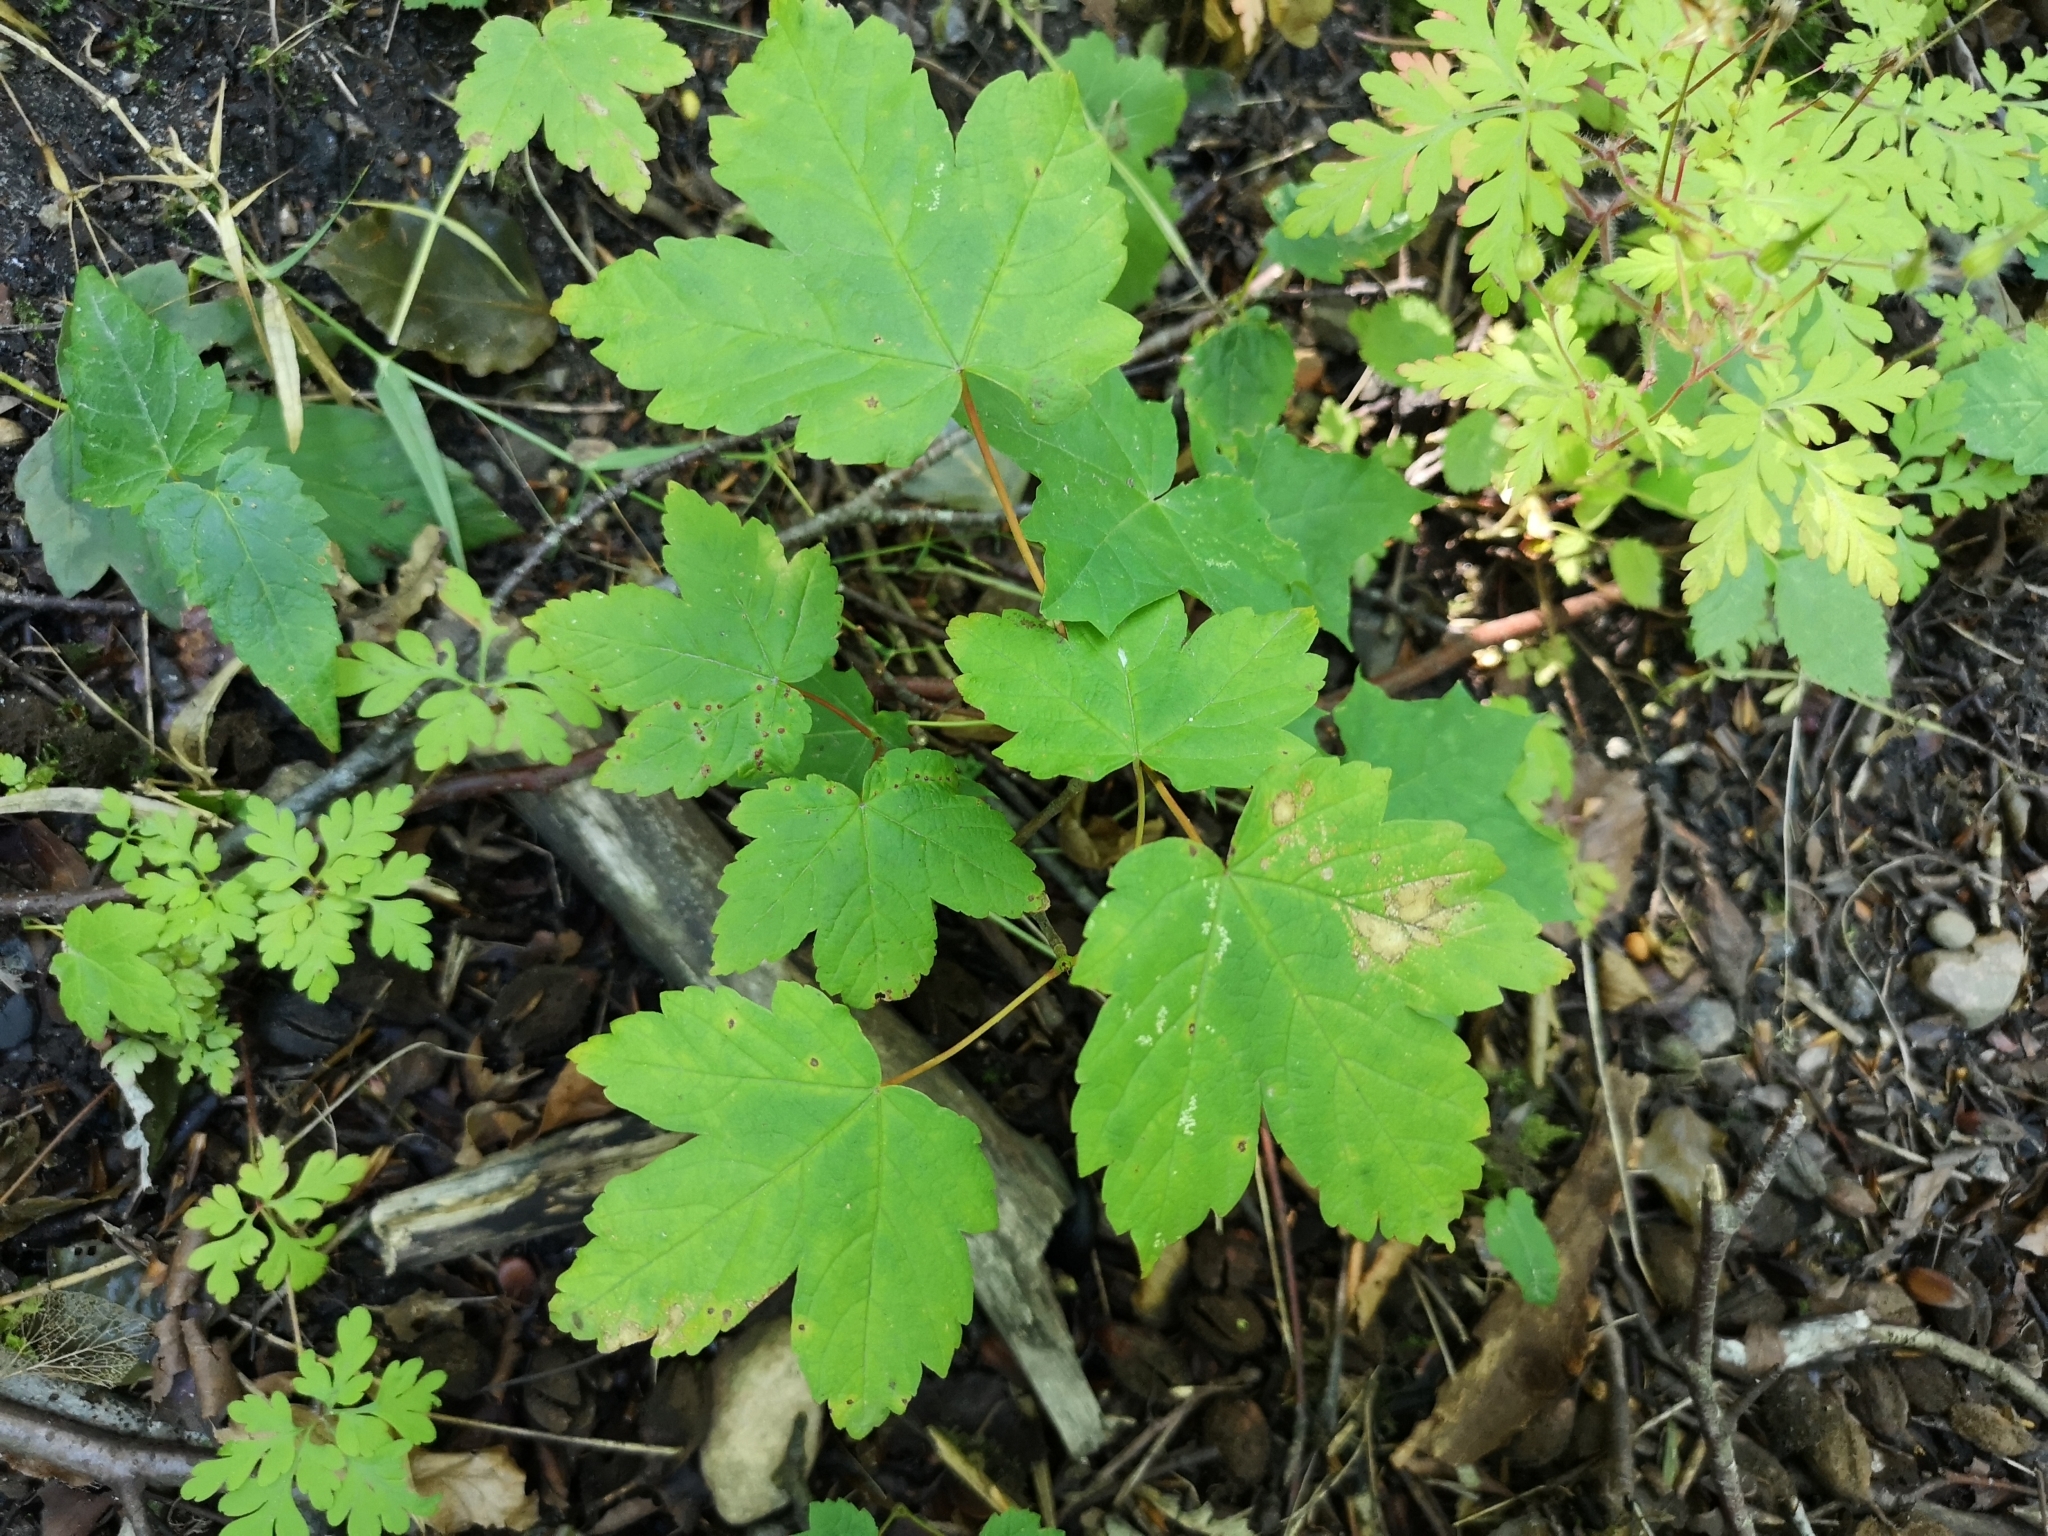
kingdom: Plantae
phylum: Tracheophyta
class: Magnoliopsida
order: Sapindales
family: Sapindaceae
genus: Acer
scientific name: Acer pseudoplatanus
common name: Sycamore
